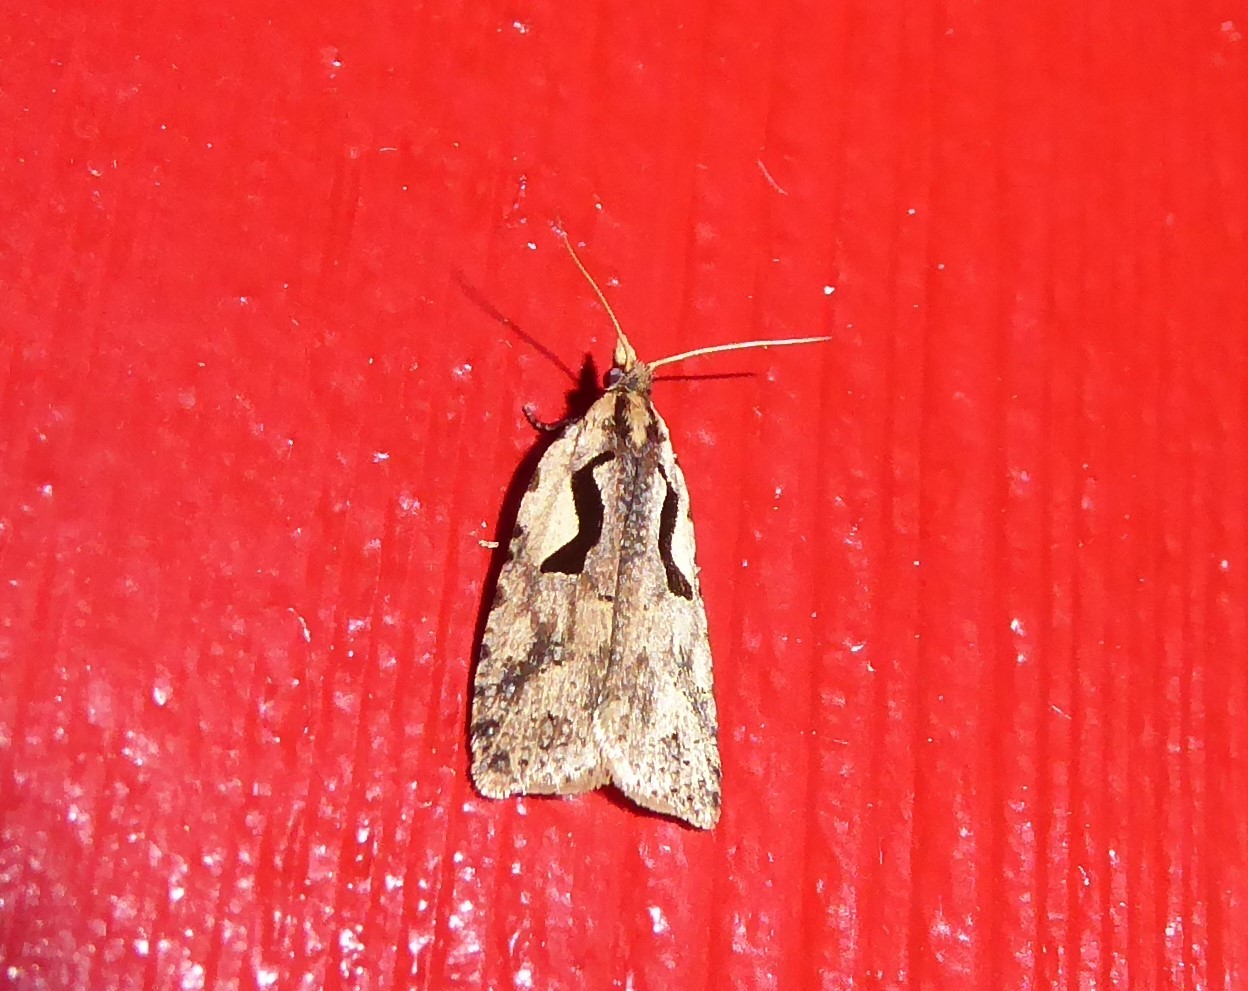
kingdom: Animalia
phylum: Arthropoda
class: Insecta
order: Lepidoptera
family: Tortricidae
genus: Cnephasia
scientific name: Cnephasia jactatana
